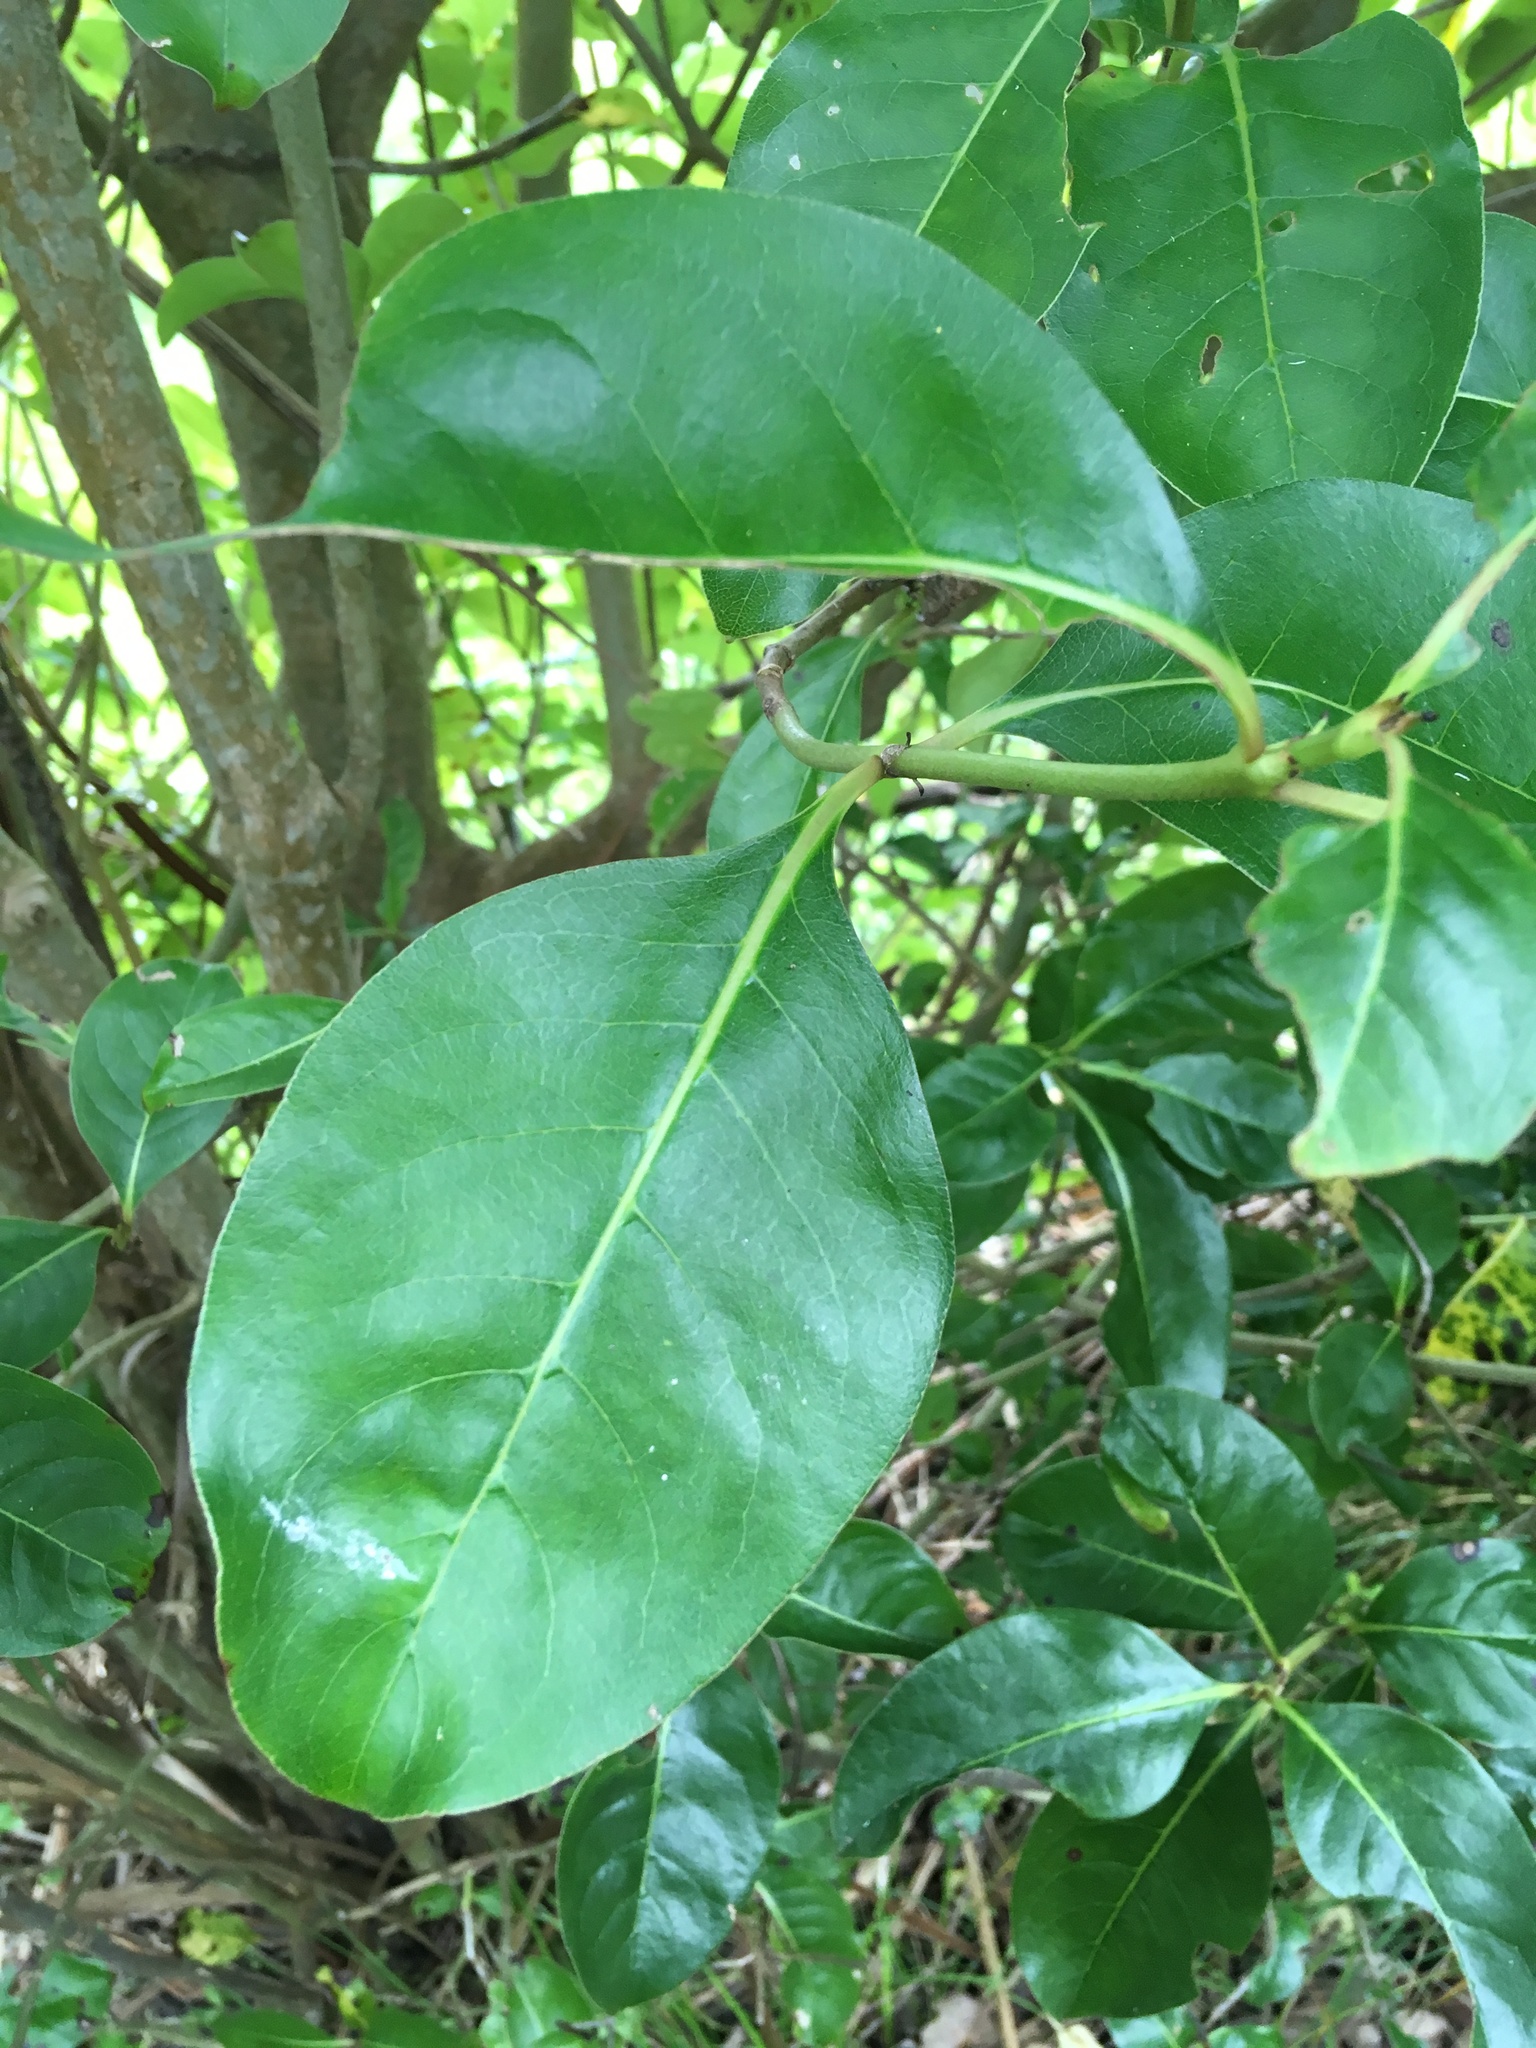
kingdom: Plantae
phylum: Tracheophyta
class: Magnoliopsida
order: Gentianales
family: Rubiaceae
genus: Coprosma
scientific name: Coprosma macrocarpa
